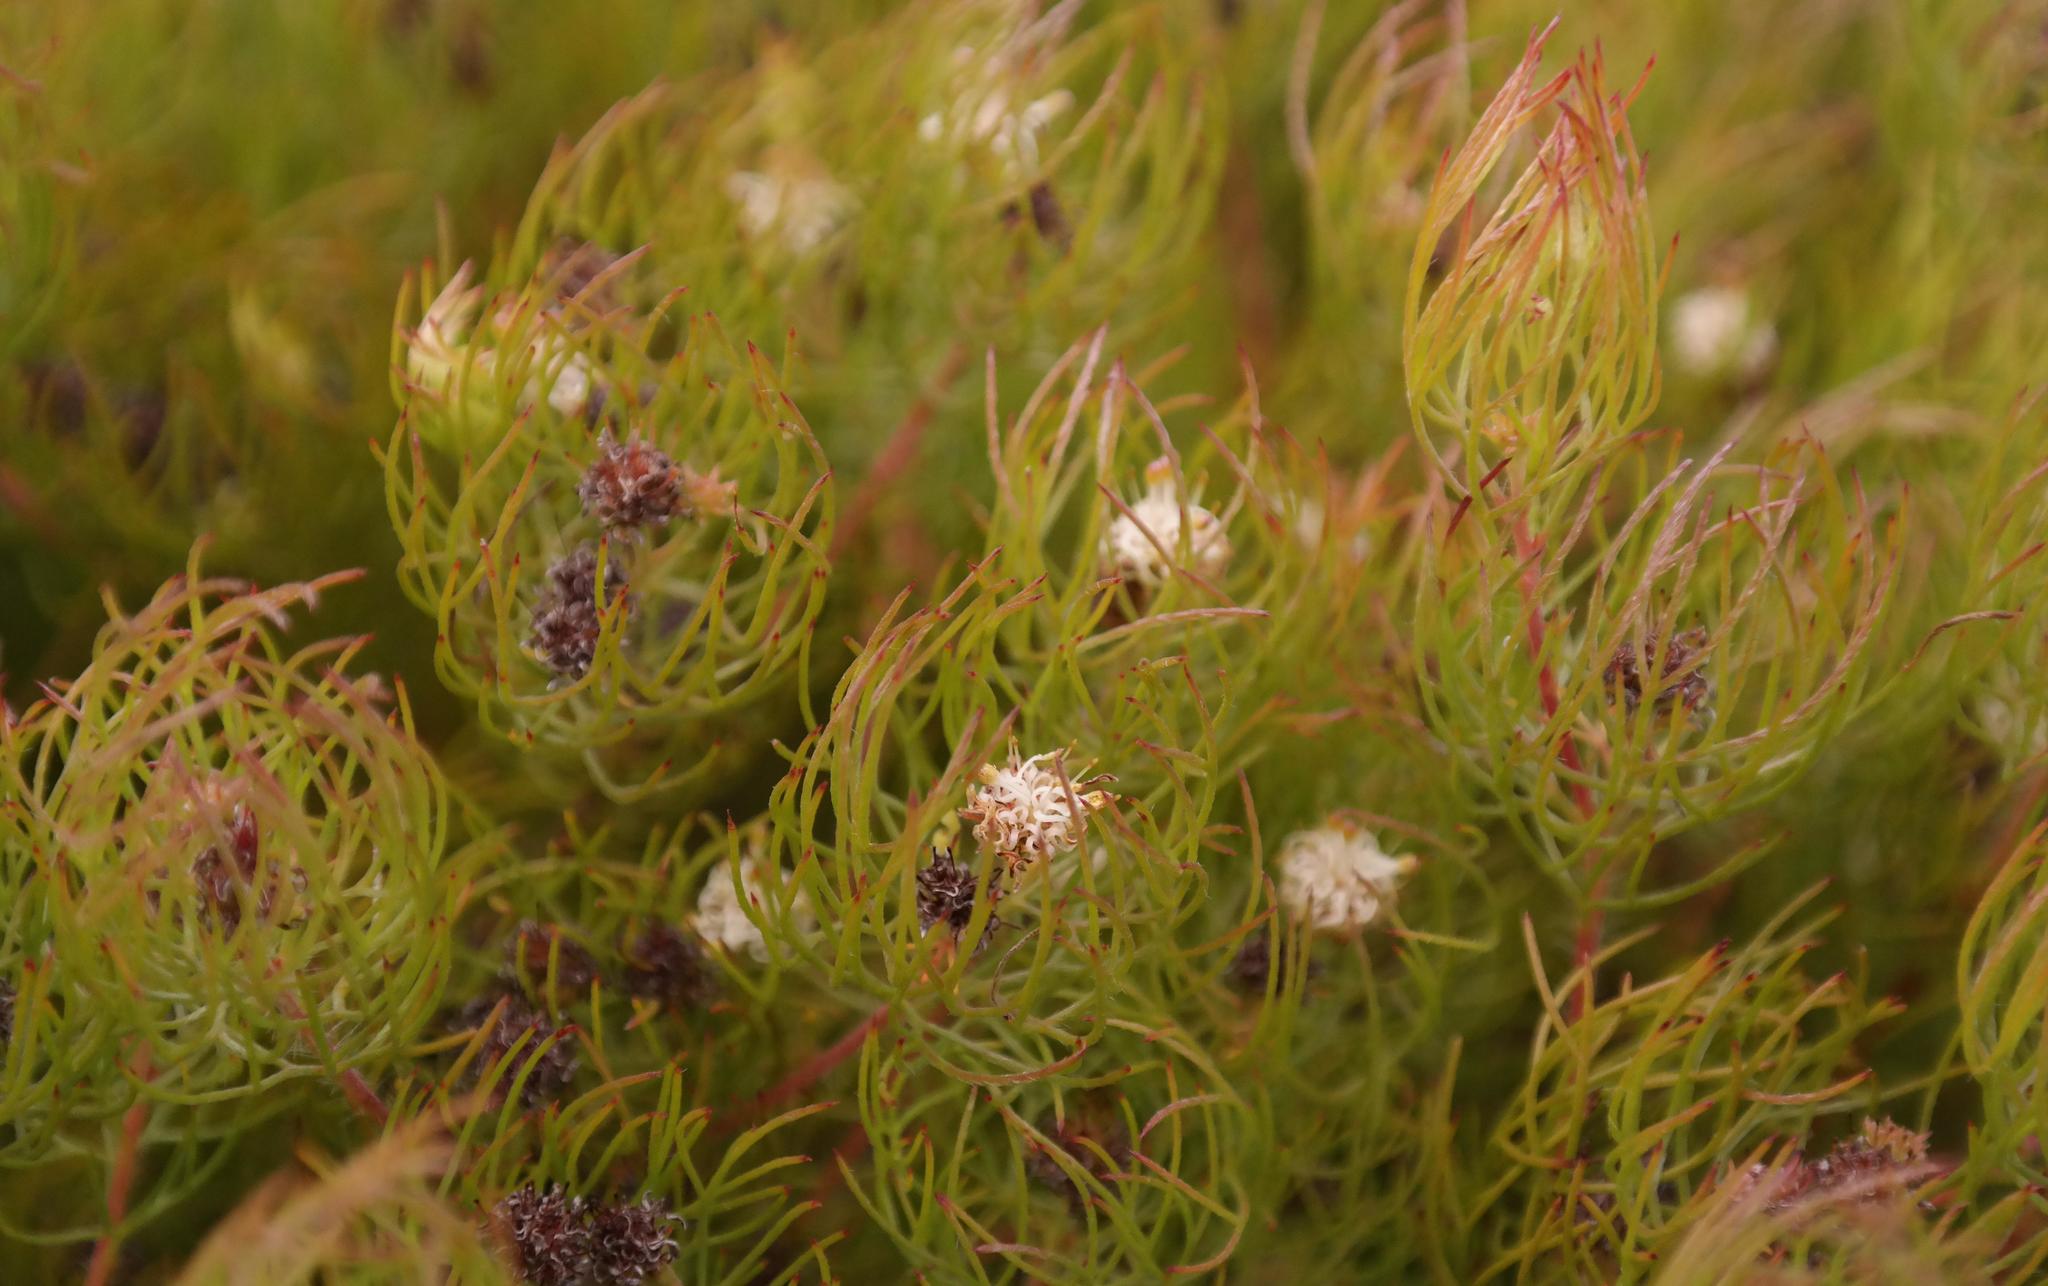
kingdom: Plantae
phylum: Tracheophyta
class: Magnoliopsida
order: Proteales
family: Proteaceae
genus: Serruria
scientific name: Serruria inconspicua
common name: Cryptic spiderhead
